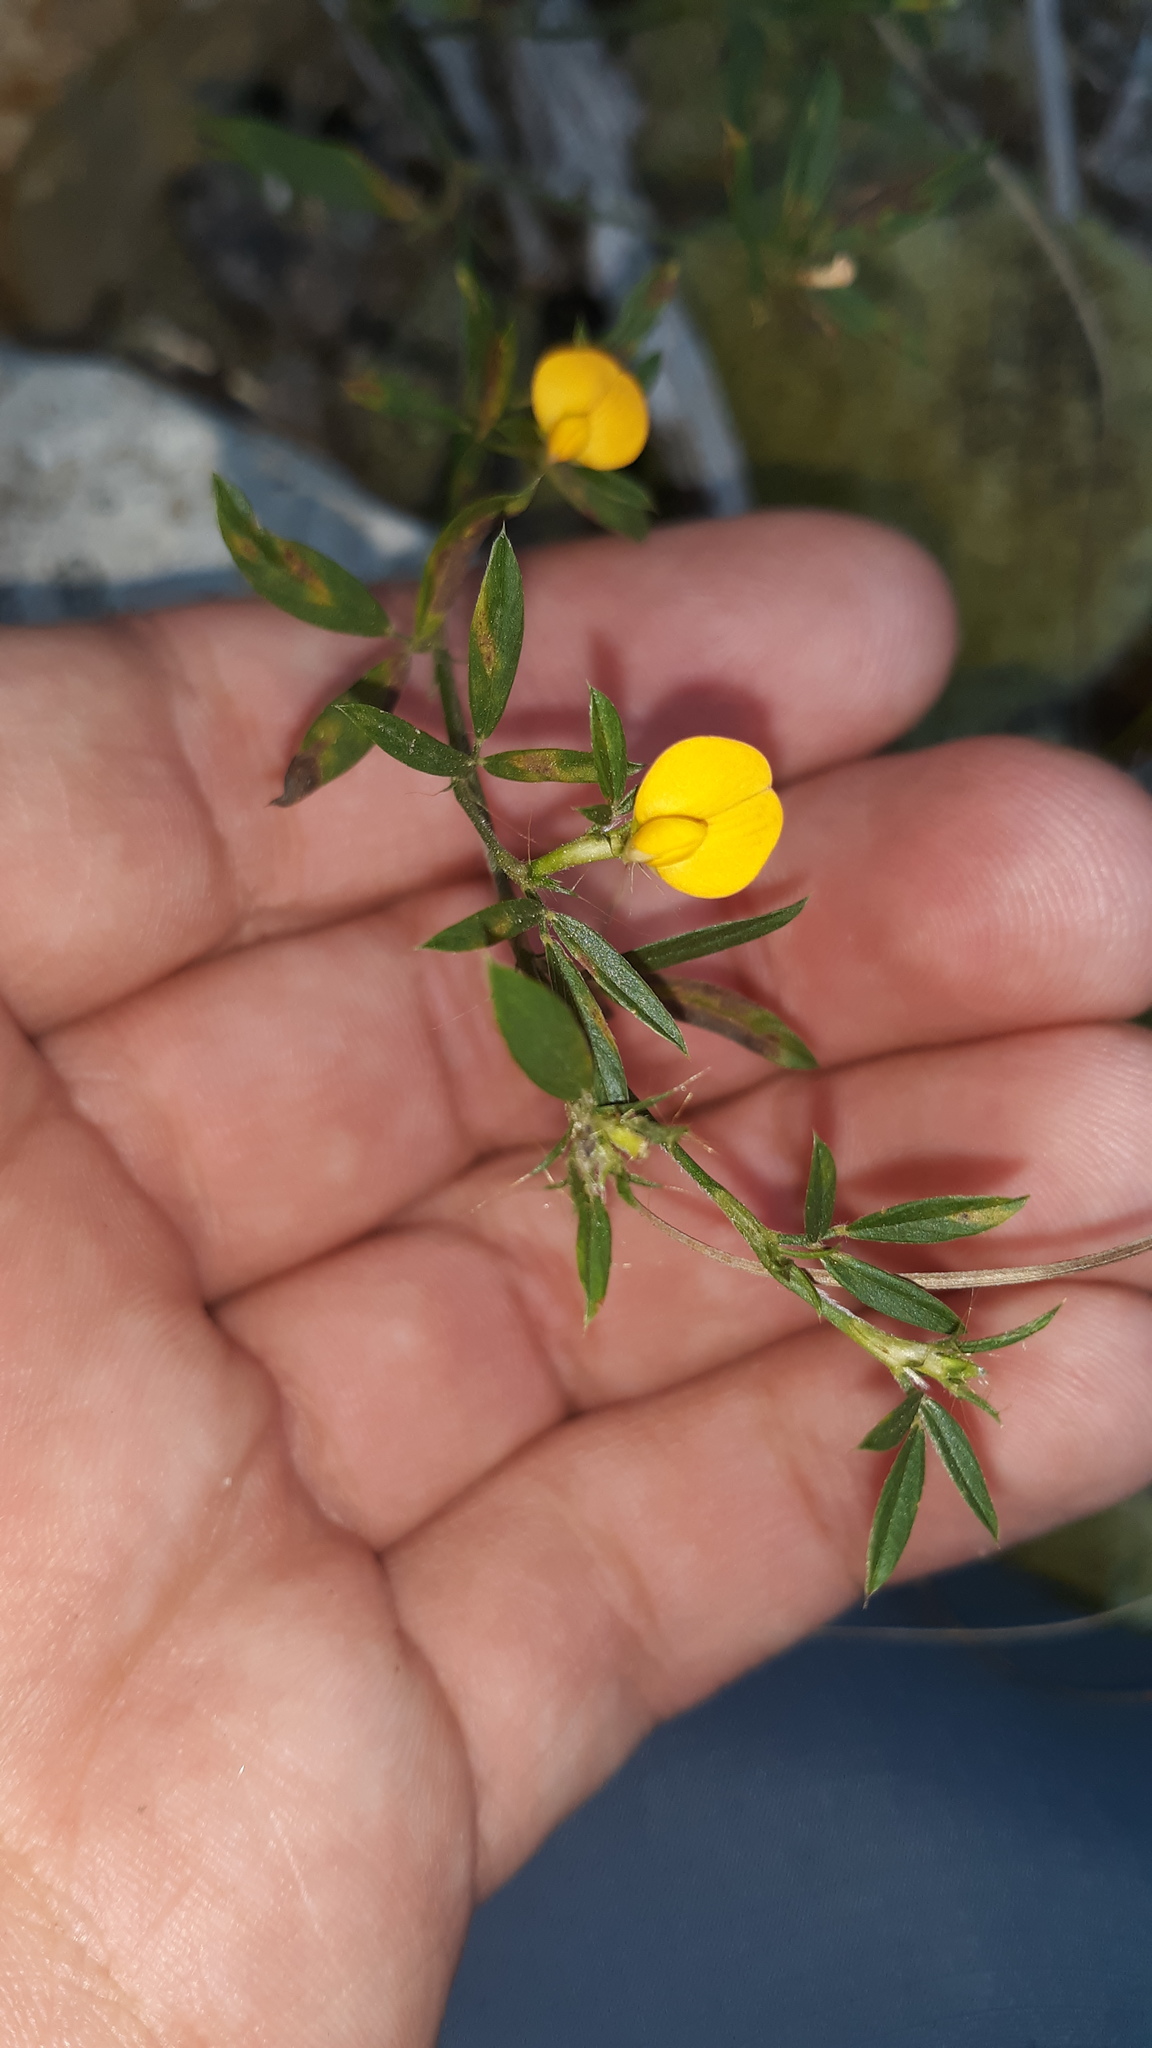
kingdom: Plantae
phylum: Tracheophyta
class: Magnoliopsida
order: Fabales
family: Fabaceae
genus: Stylosanthes
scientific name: Stylosanthes biflora
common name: Two-flower pencil-flower
